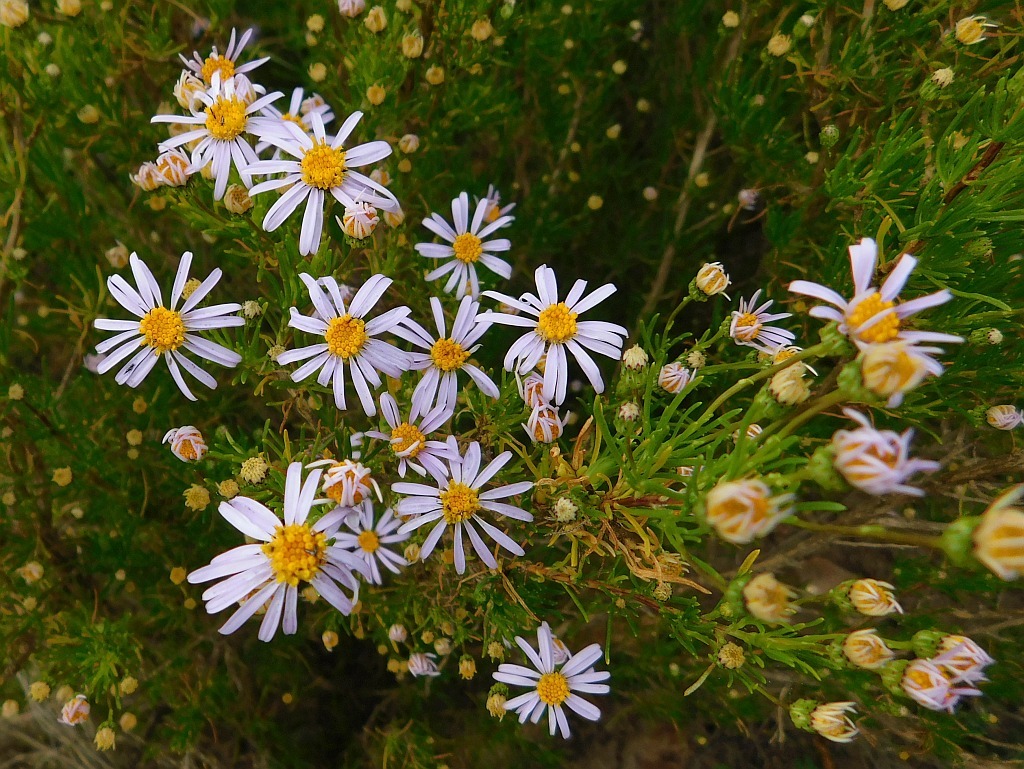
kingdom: Plantae
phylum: Tracheophyta
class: Magnoliopsida
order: Asterales
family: Asteraceae
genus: Felicia
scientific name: Felicia filifolia
